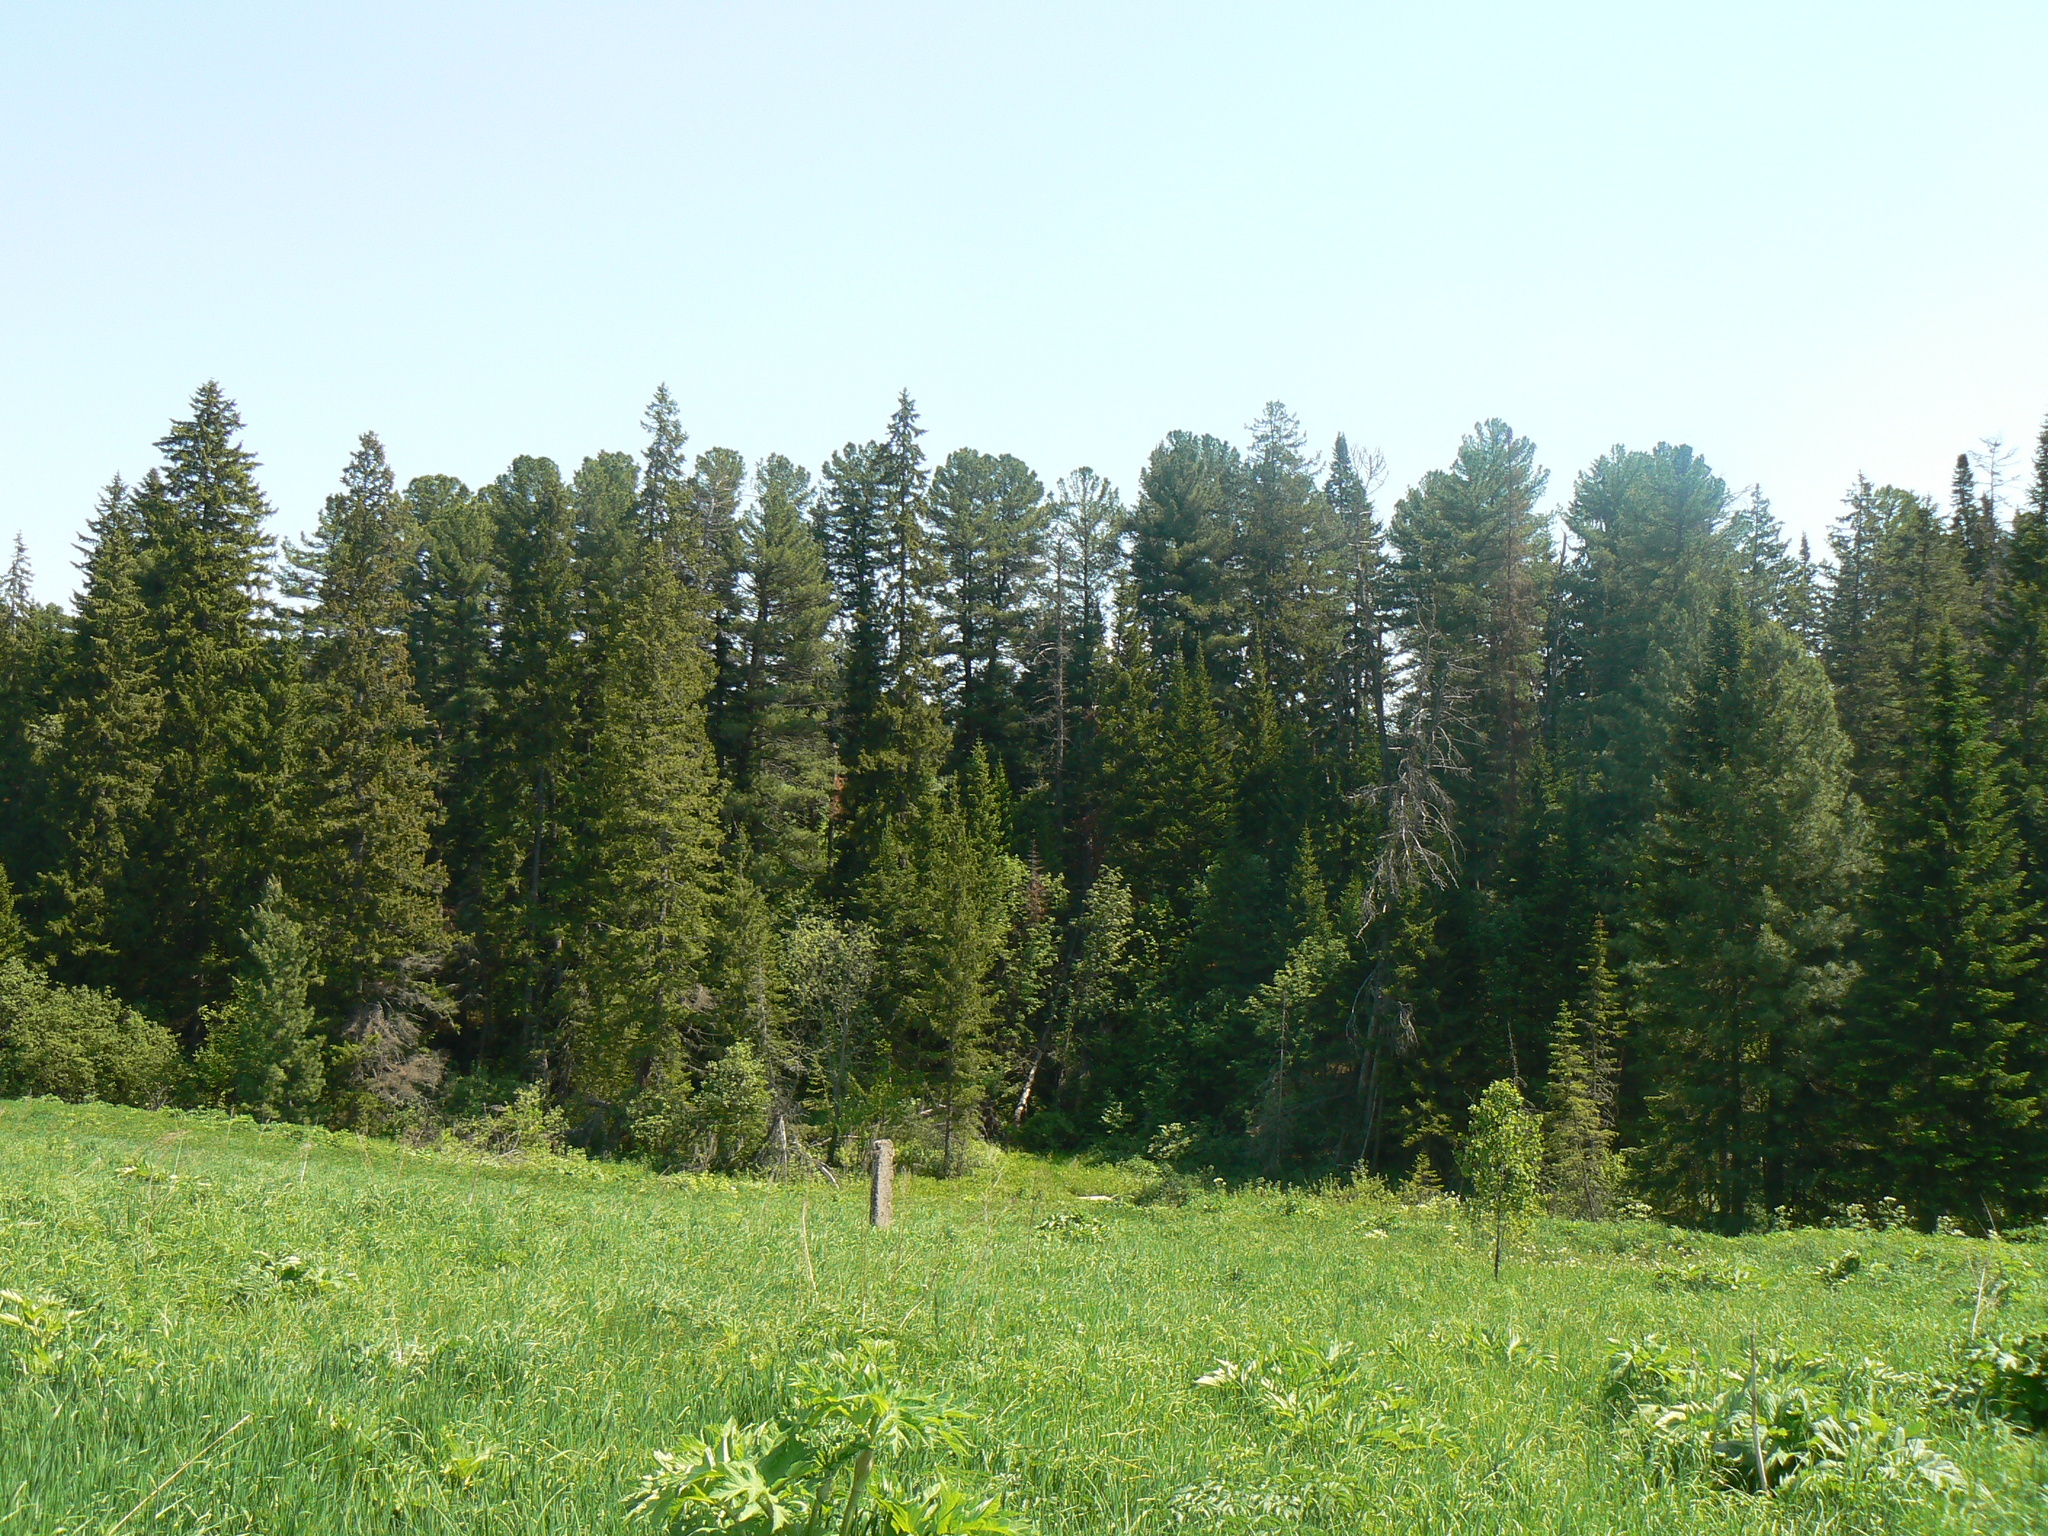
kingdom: Plantae
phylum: Tracheophyta
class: Pinopsida
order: Pinales
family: Pinaceae
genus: Abies
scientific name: Abies sibirica
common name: Siberian fir
